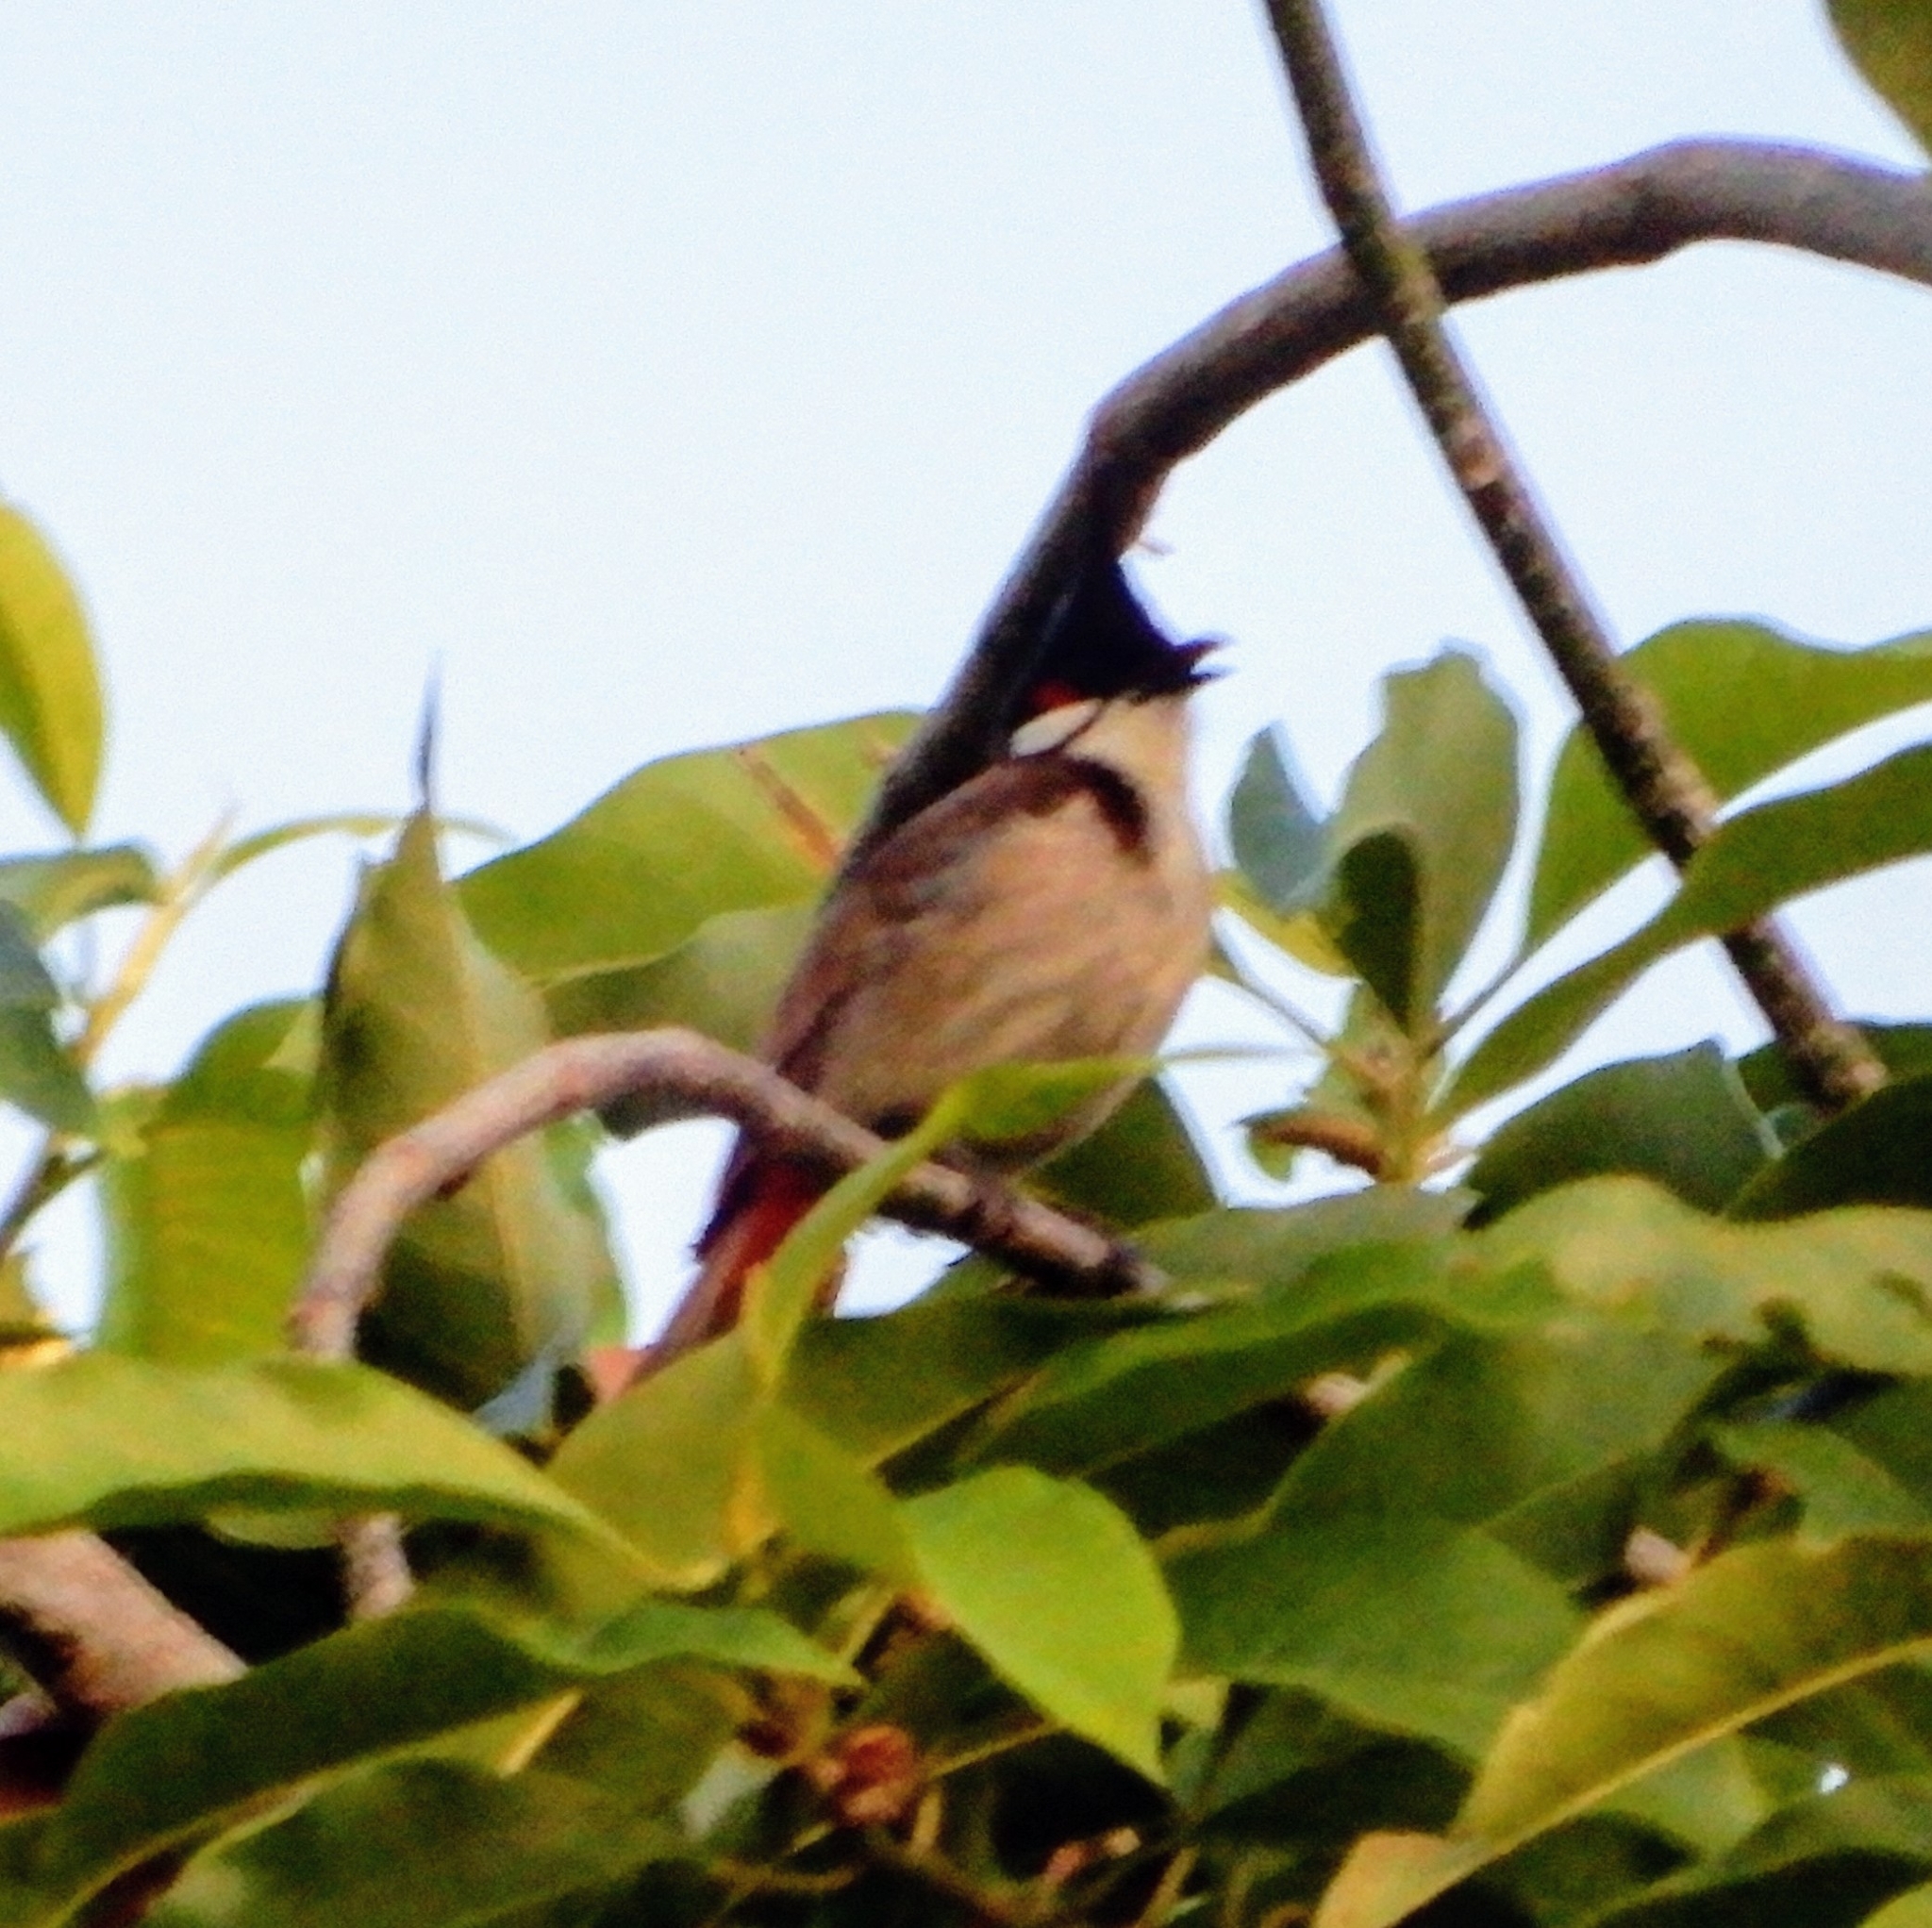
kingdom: Animalia
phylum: Chordata
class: Aves
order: Passeriformes
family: Pycnonotidae
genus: Pycnonotus
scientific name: Pycnonotus jocosus
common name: Red-whiskered bulbul
